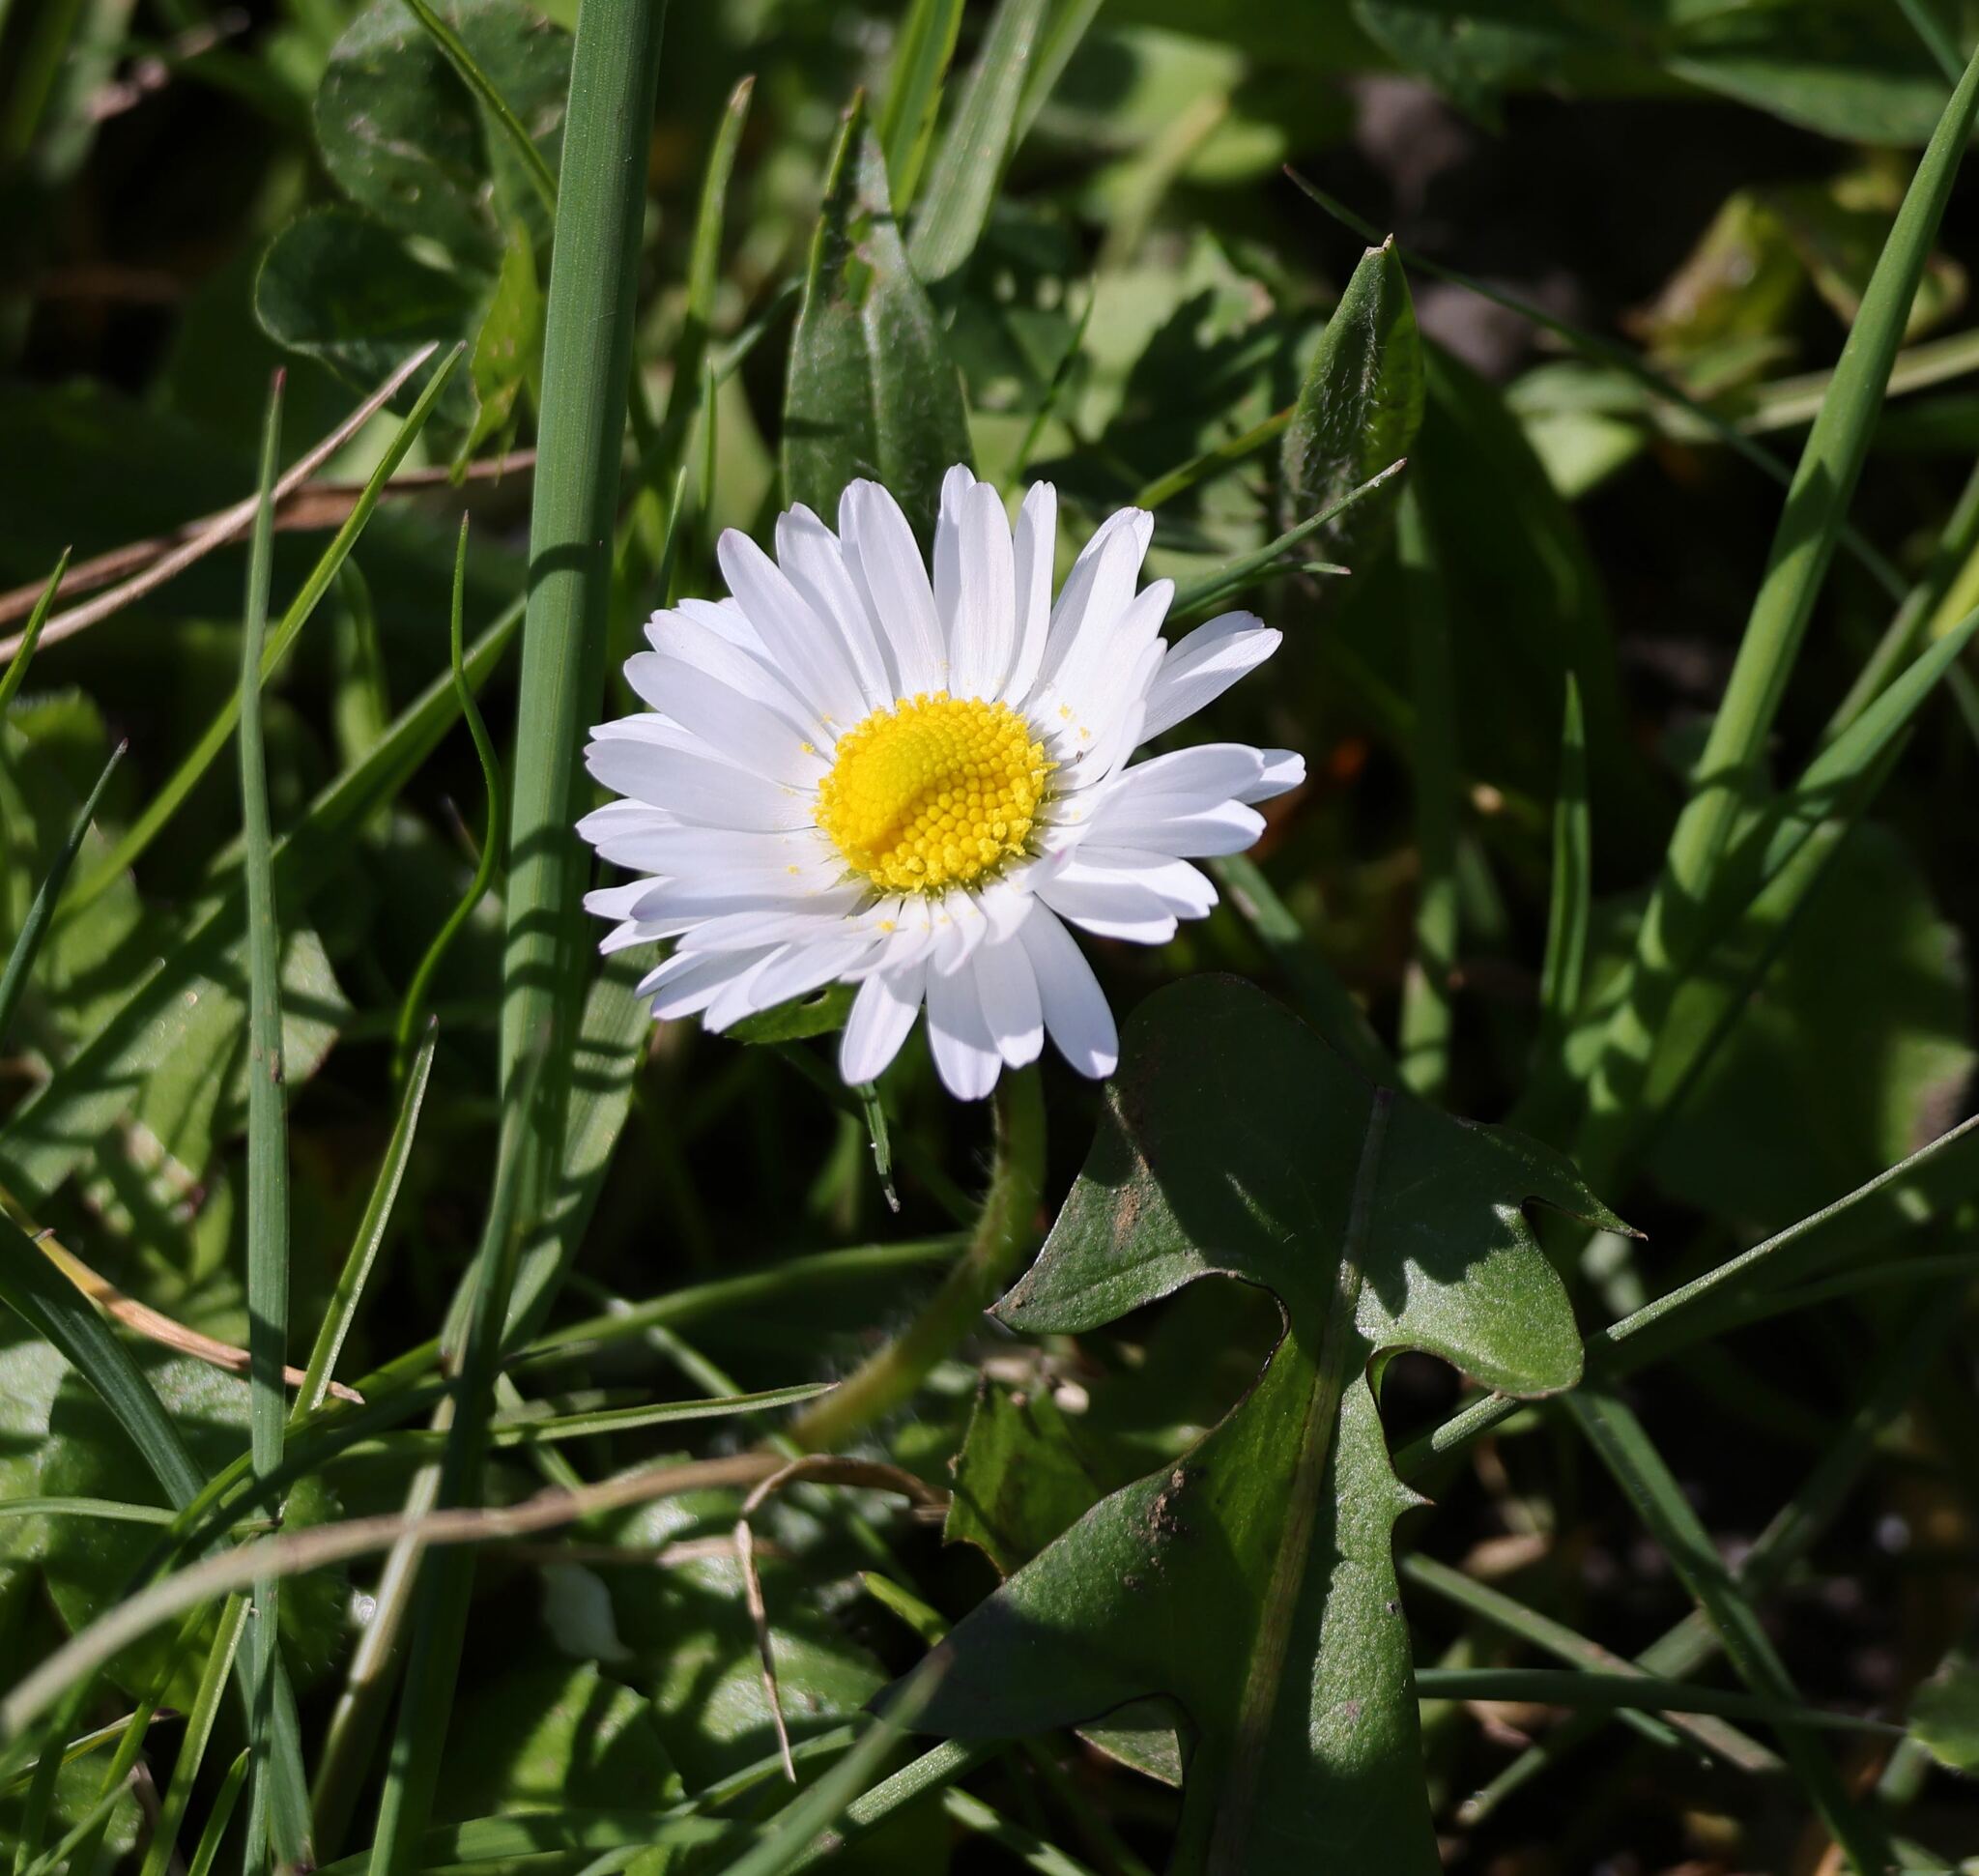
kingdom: Plantae
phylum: Tracheophyta
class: Magnoliopsida
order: Asterales
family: Asteraceae
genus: Bellis
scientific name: Bellis perennis
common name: Lawndaisy
